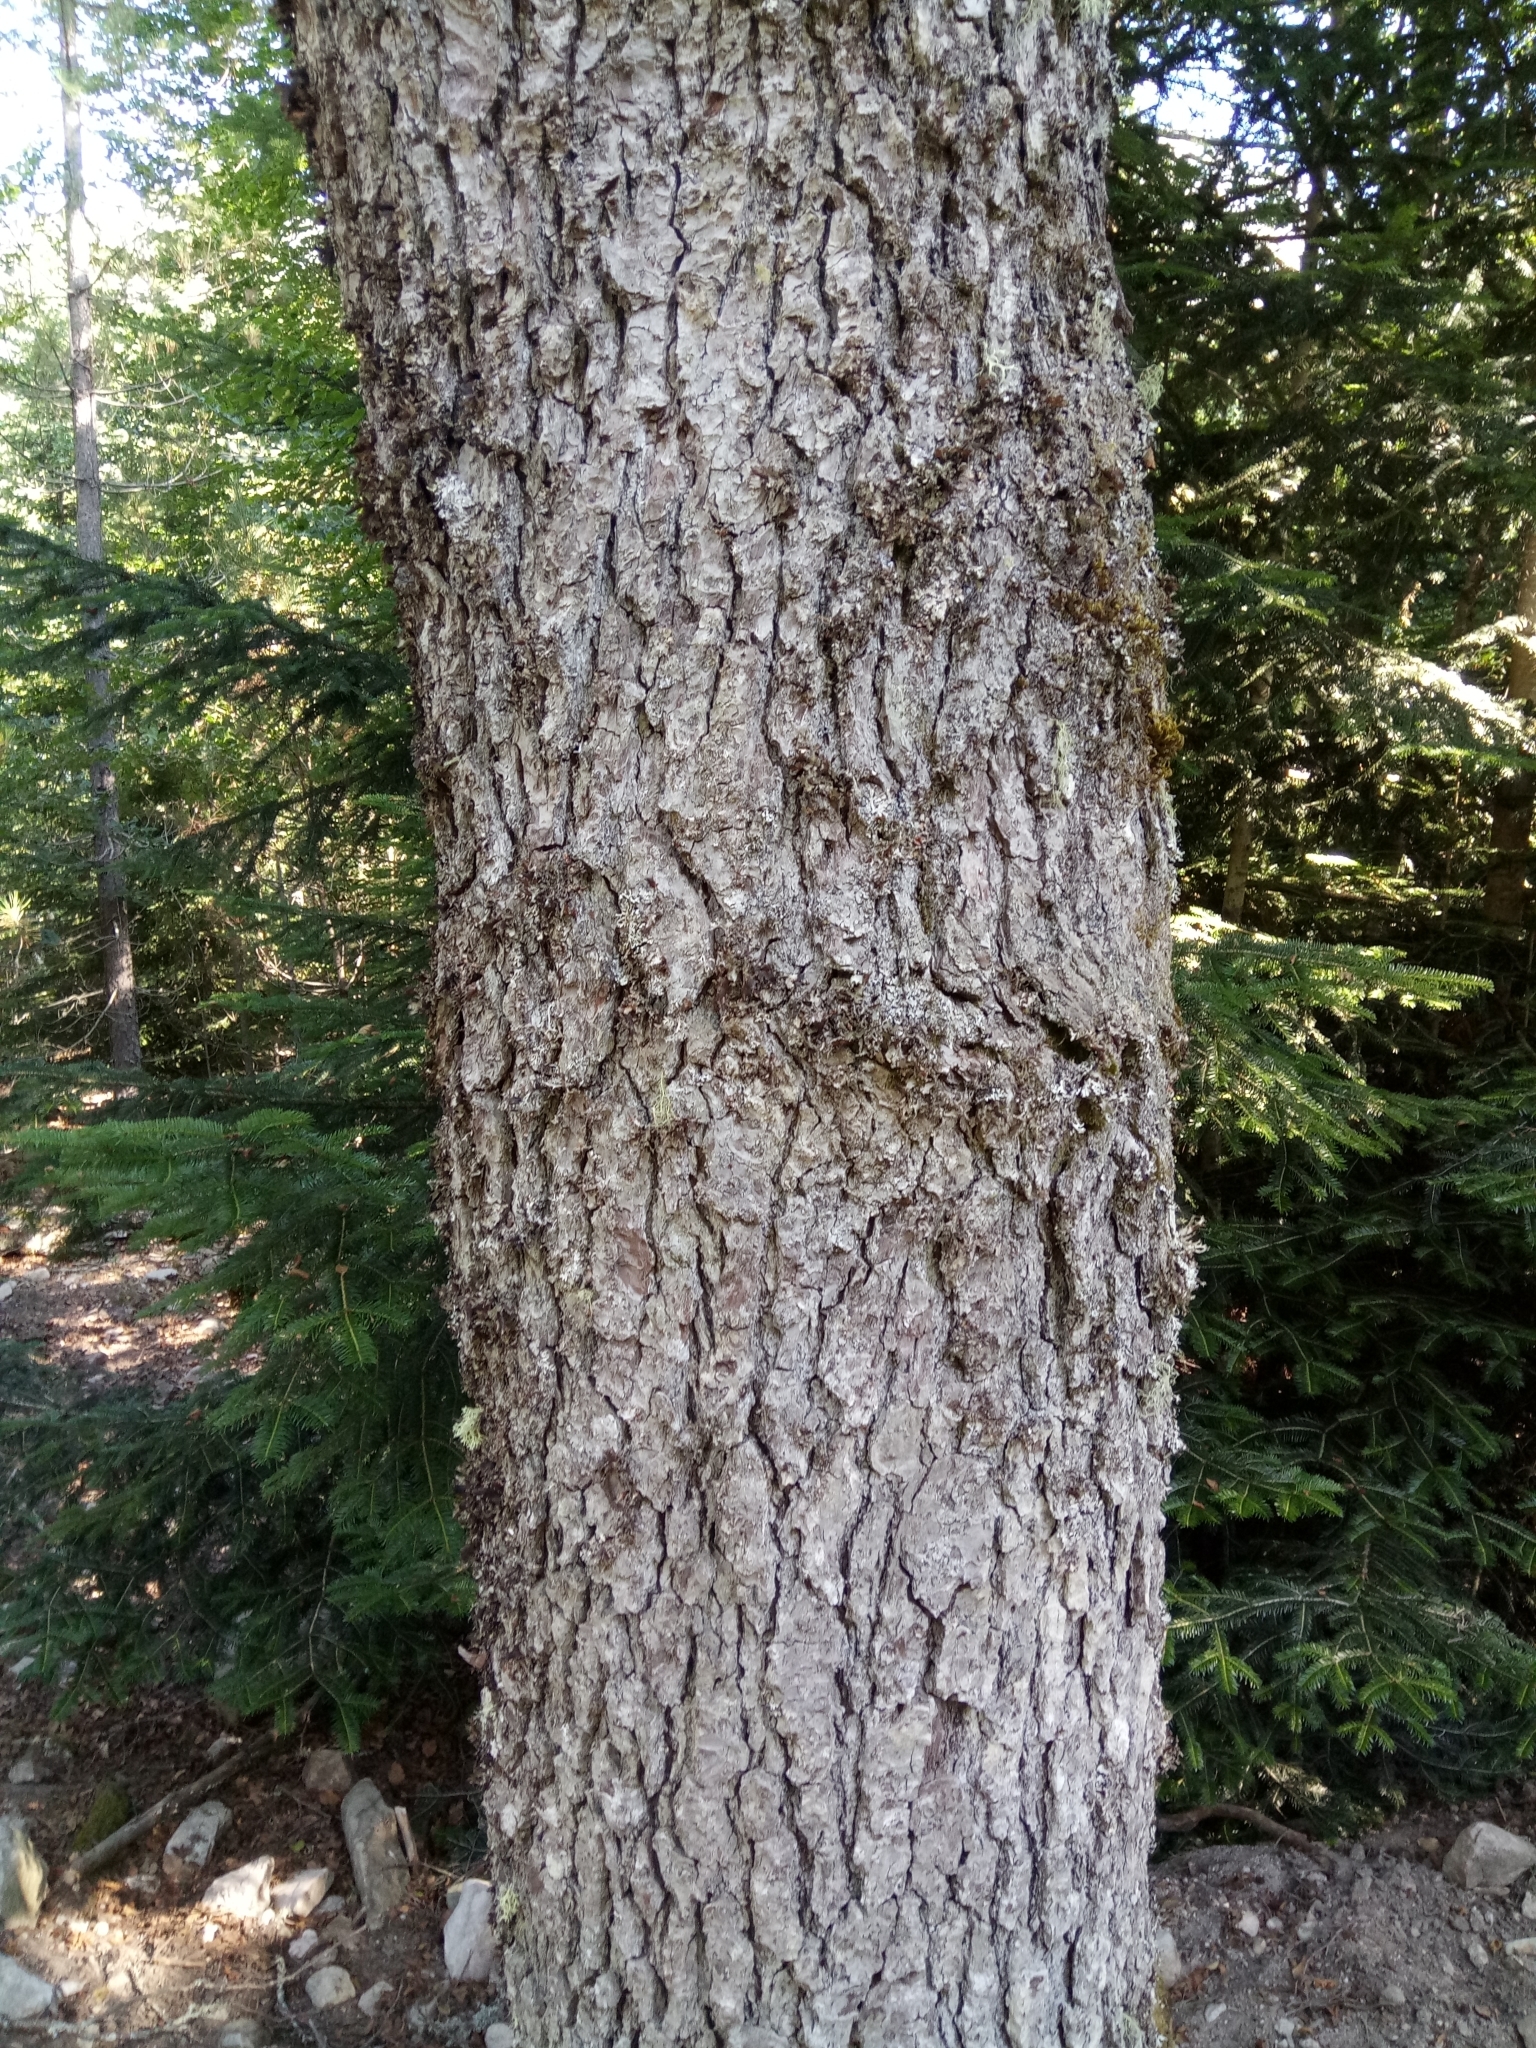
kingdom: Plantae
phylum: Tracheophyta
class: Magnoliopsida
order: Fagales
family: Betulaceae
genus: Alnus
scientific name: Alnus glutinosa
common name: Black alder
